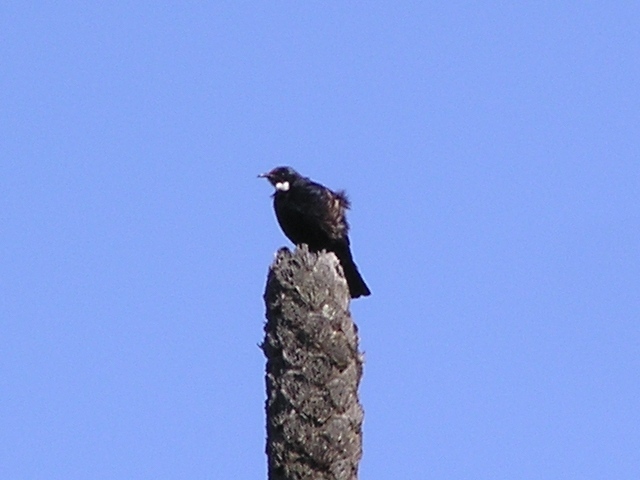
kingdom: Animalia
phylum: Chordata
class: Aves
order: Passeriformes
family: Meliphagidae
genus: Prosthemadera
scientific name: Prosthemadera novaeseelandiae
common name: Tui
